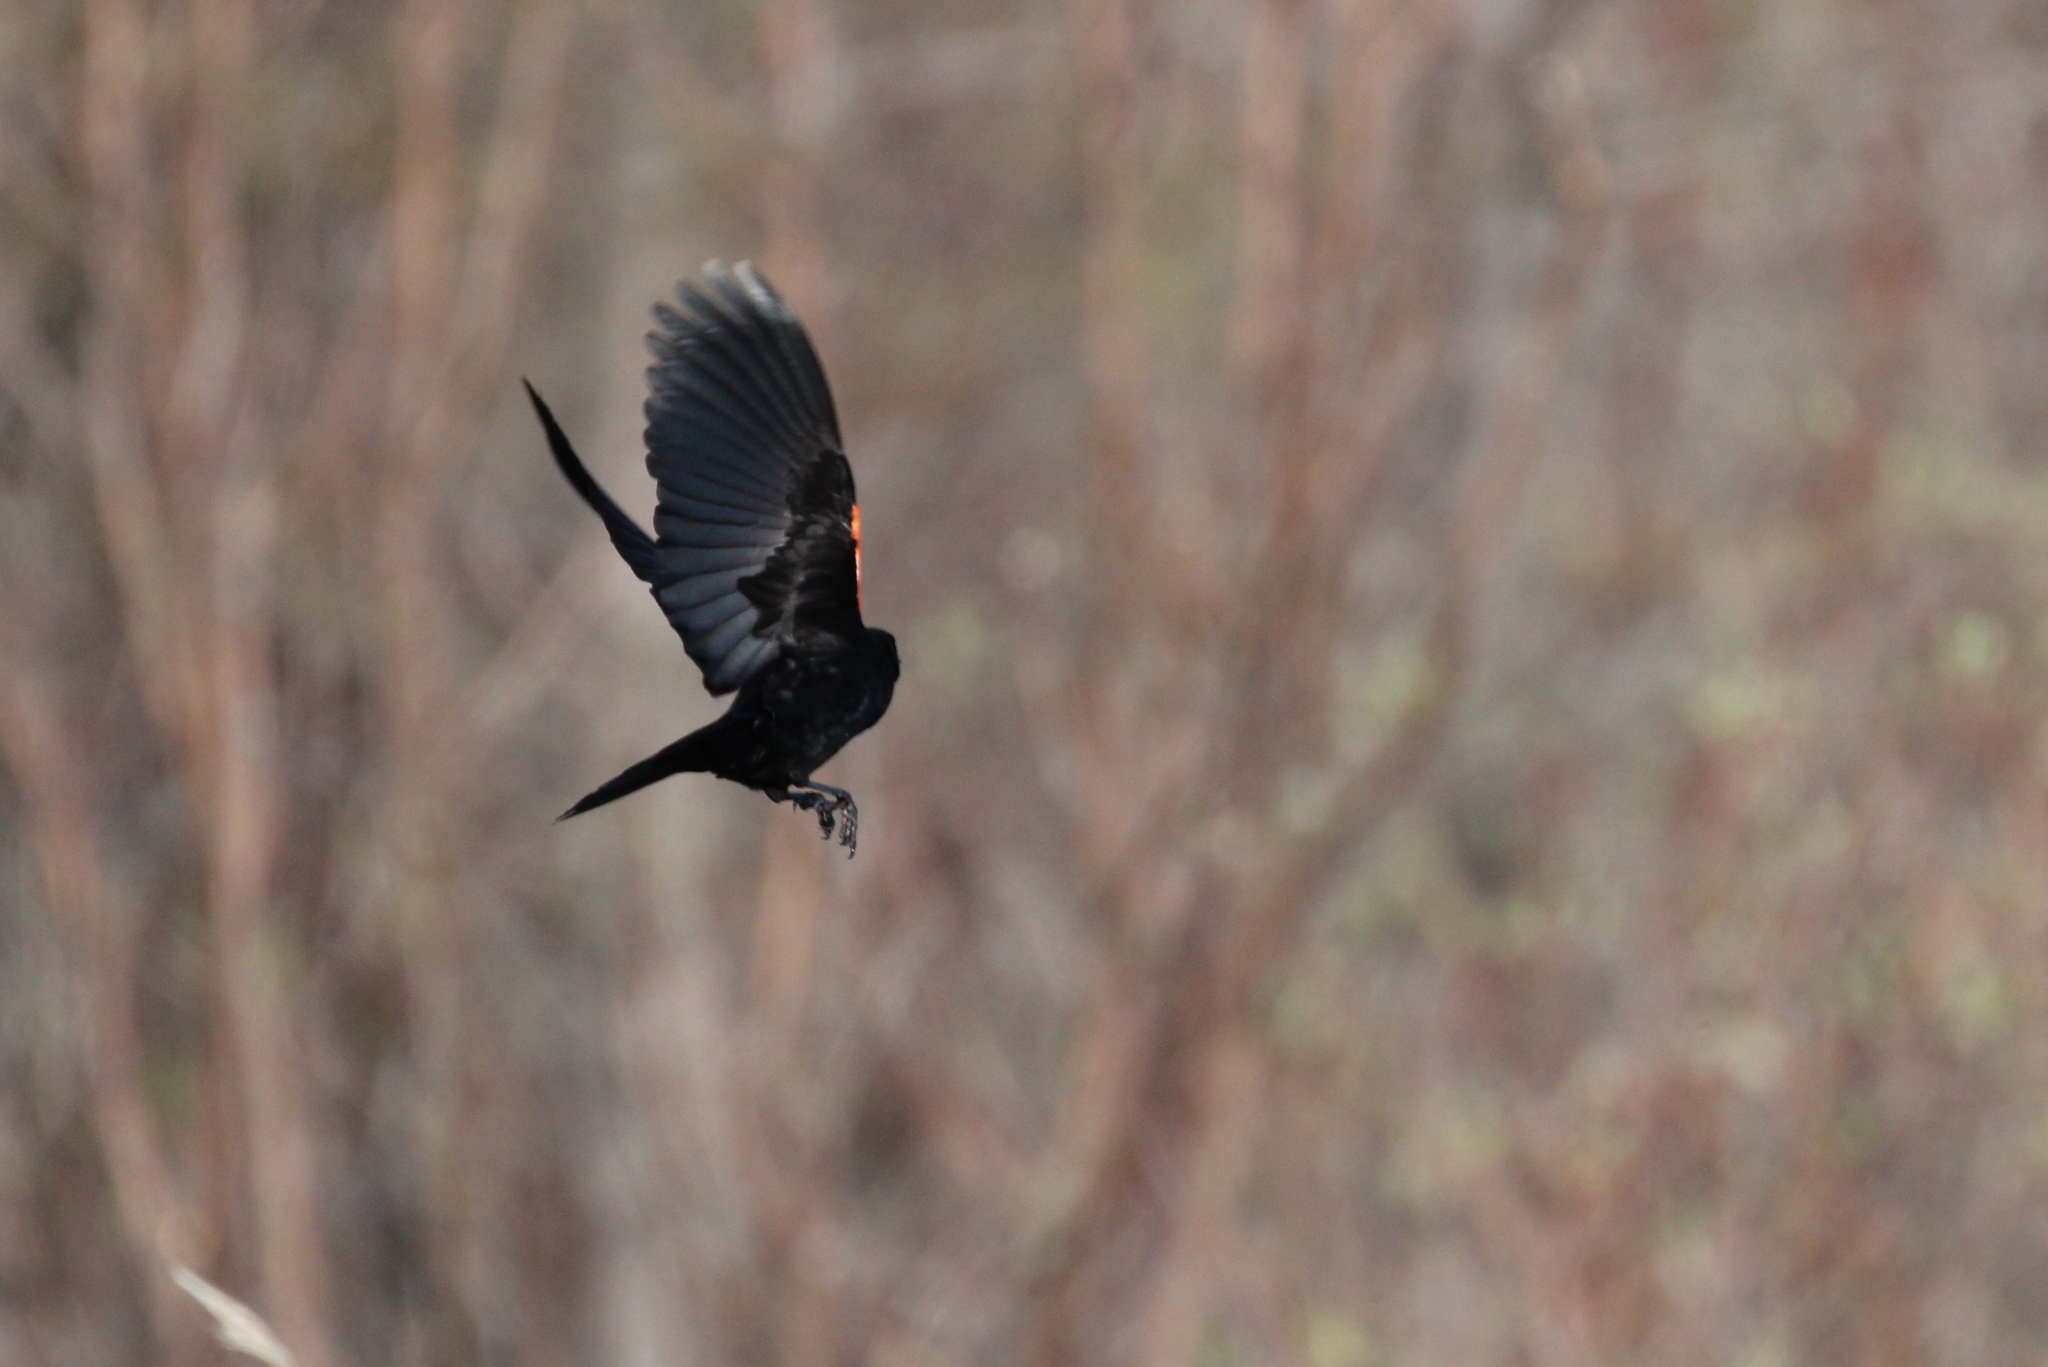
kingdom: Animalia
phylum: Chordata
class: Aves
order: Passeriformes
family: Icteridae
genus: Agelaius
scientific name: Agelaius phoeniceus
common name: Red-winged blackbird
